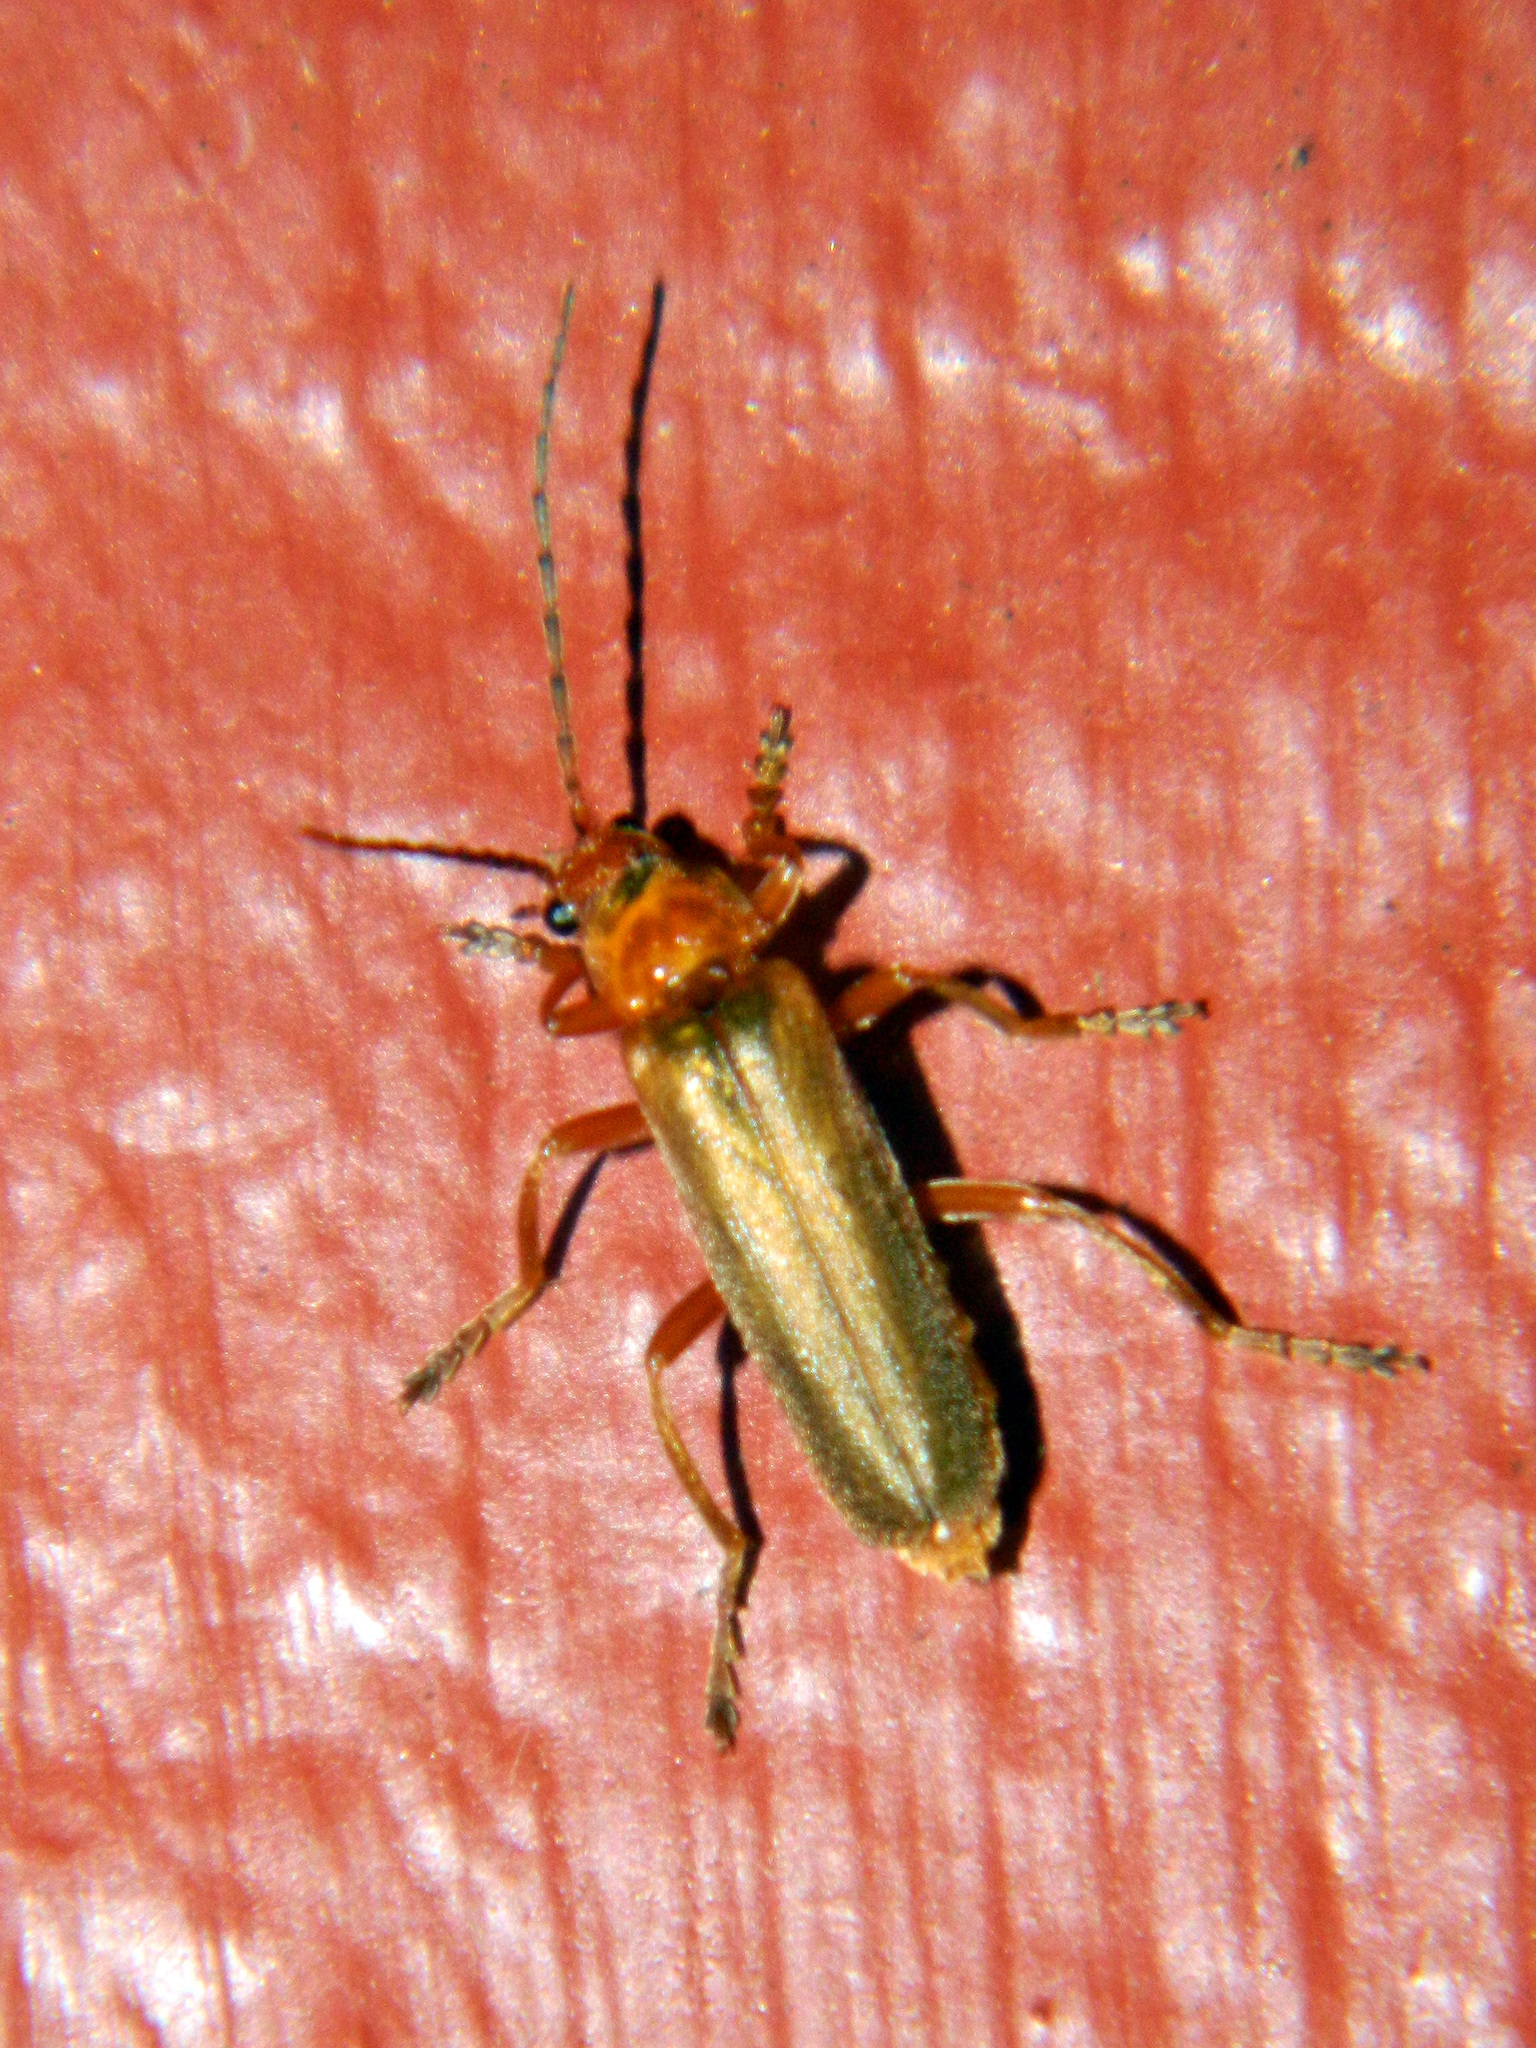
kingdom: Animalia
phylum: Arthropoda
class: Insecta
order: Coleoptera
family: Cantharidae
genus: Cantharis
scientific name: Cantharis rufa
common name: Red-spotted soldier beetle
